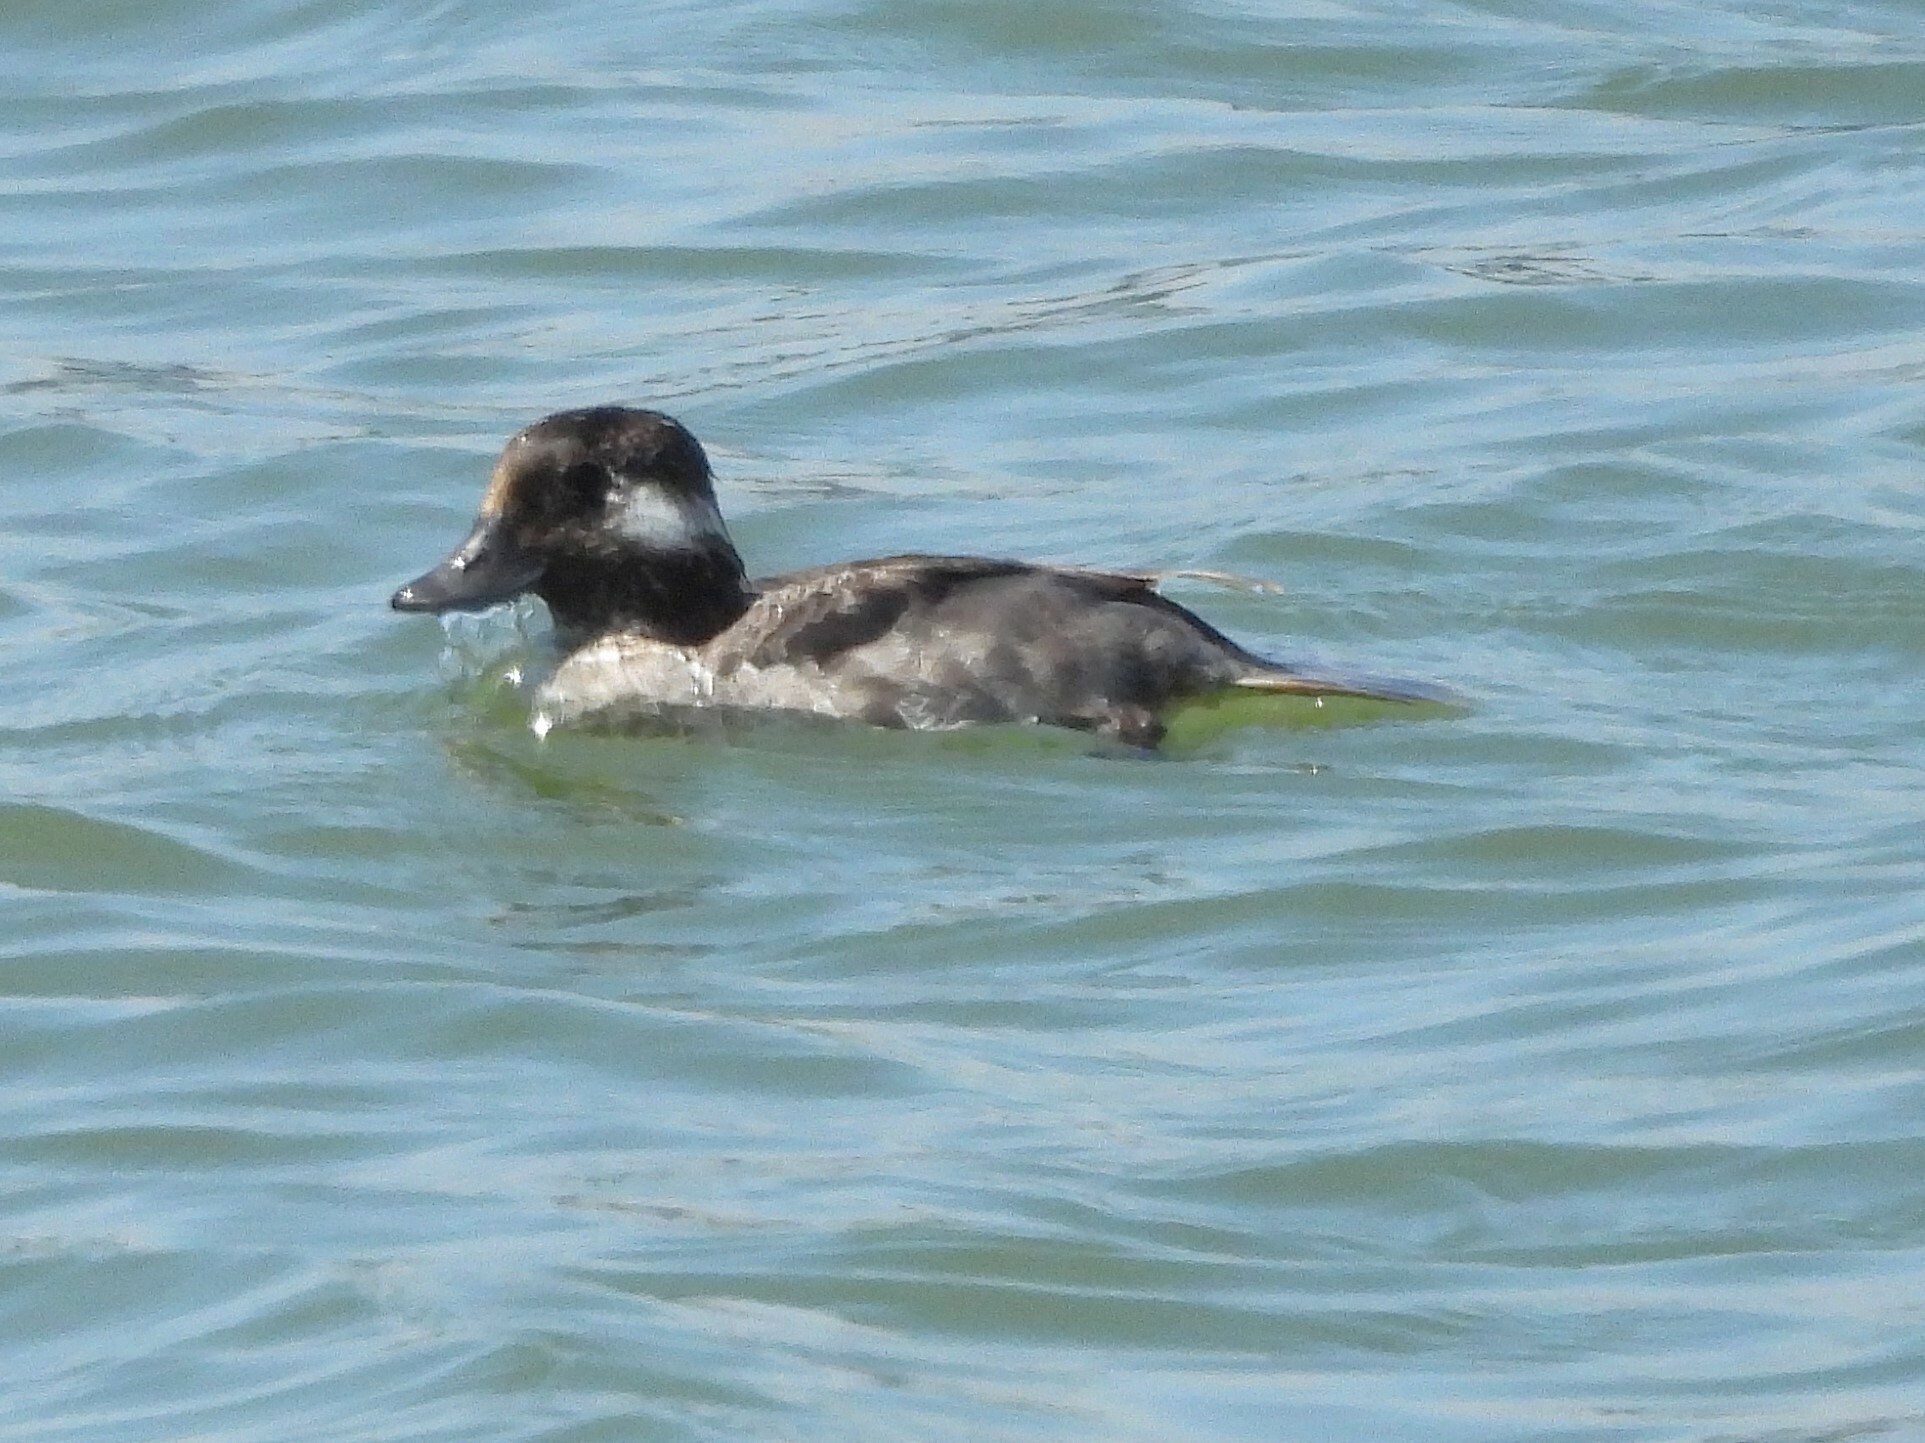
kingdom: Animalia
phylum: Chordata
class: Aves
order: Anseriformes
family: Anatidae
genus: Bucephala
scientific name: Bucephala albeola
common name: Bufflehead
